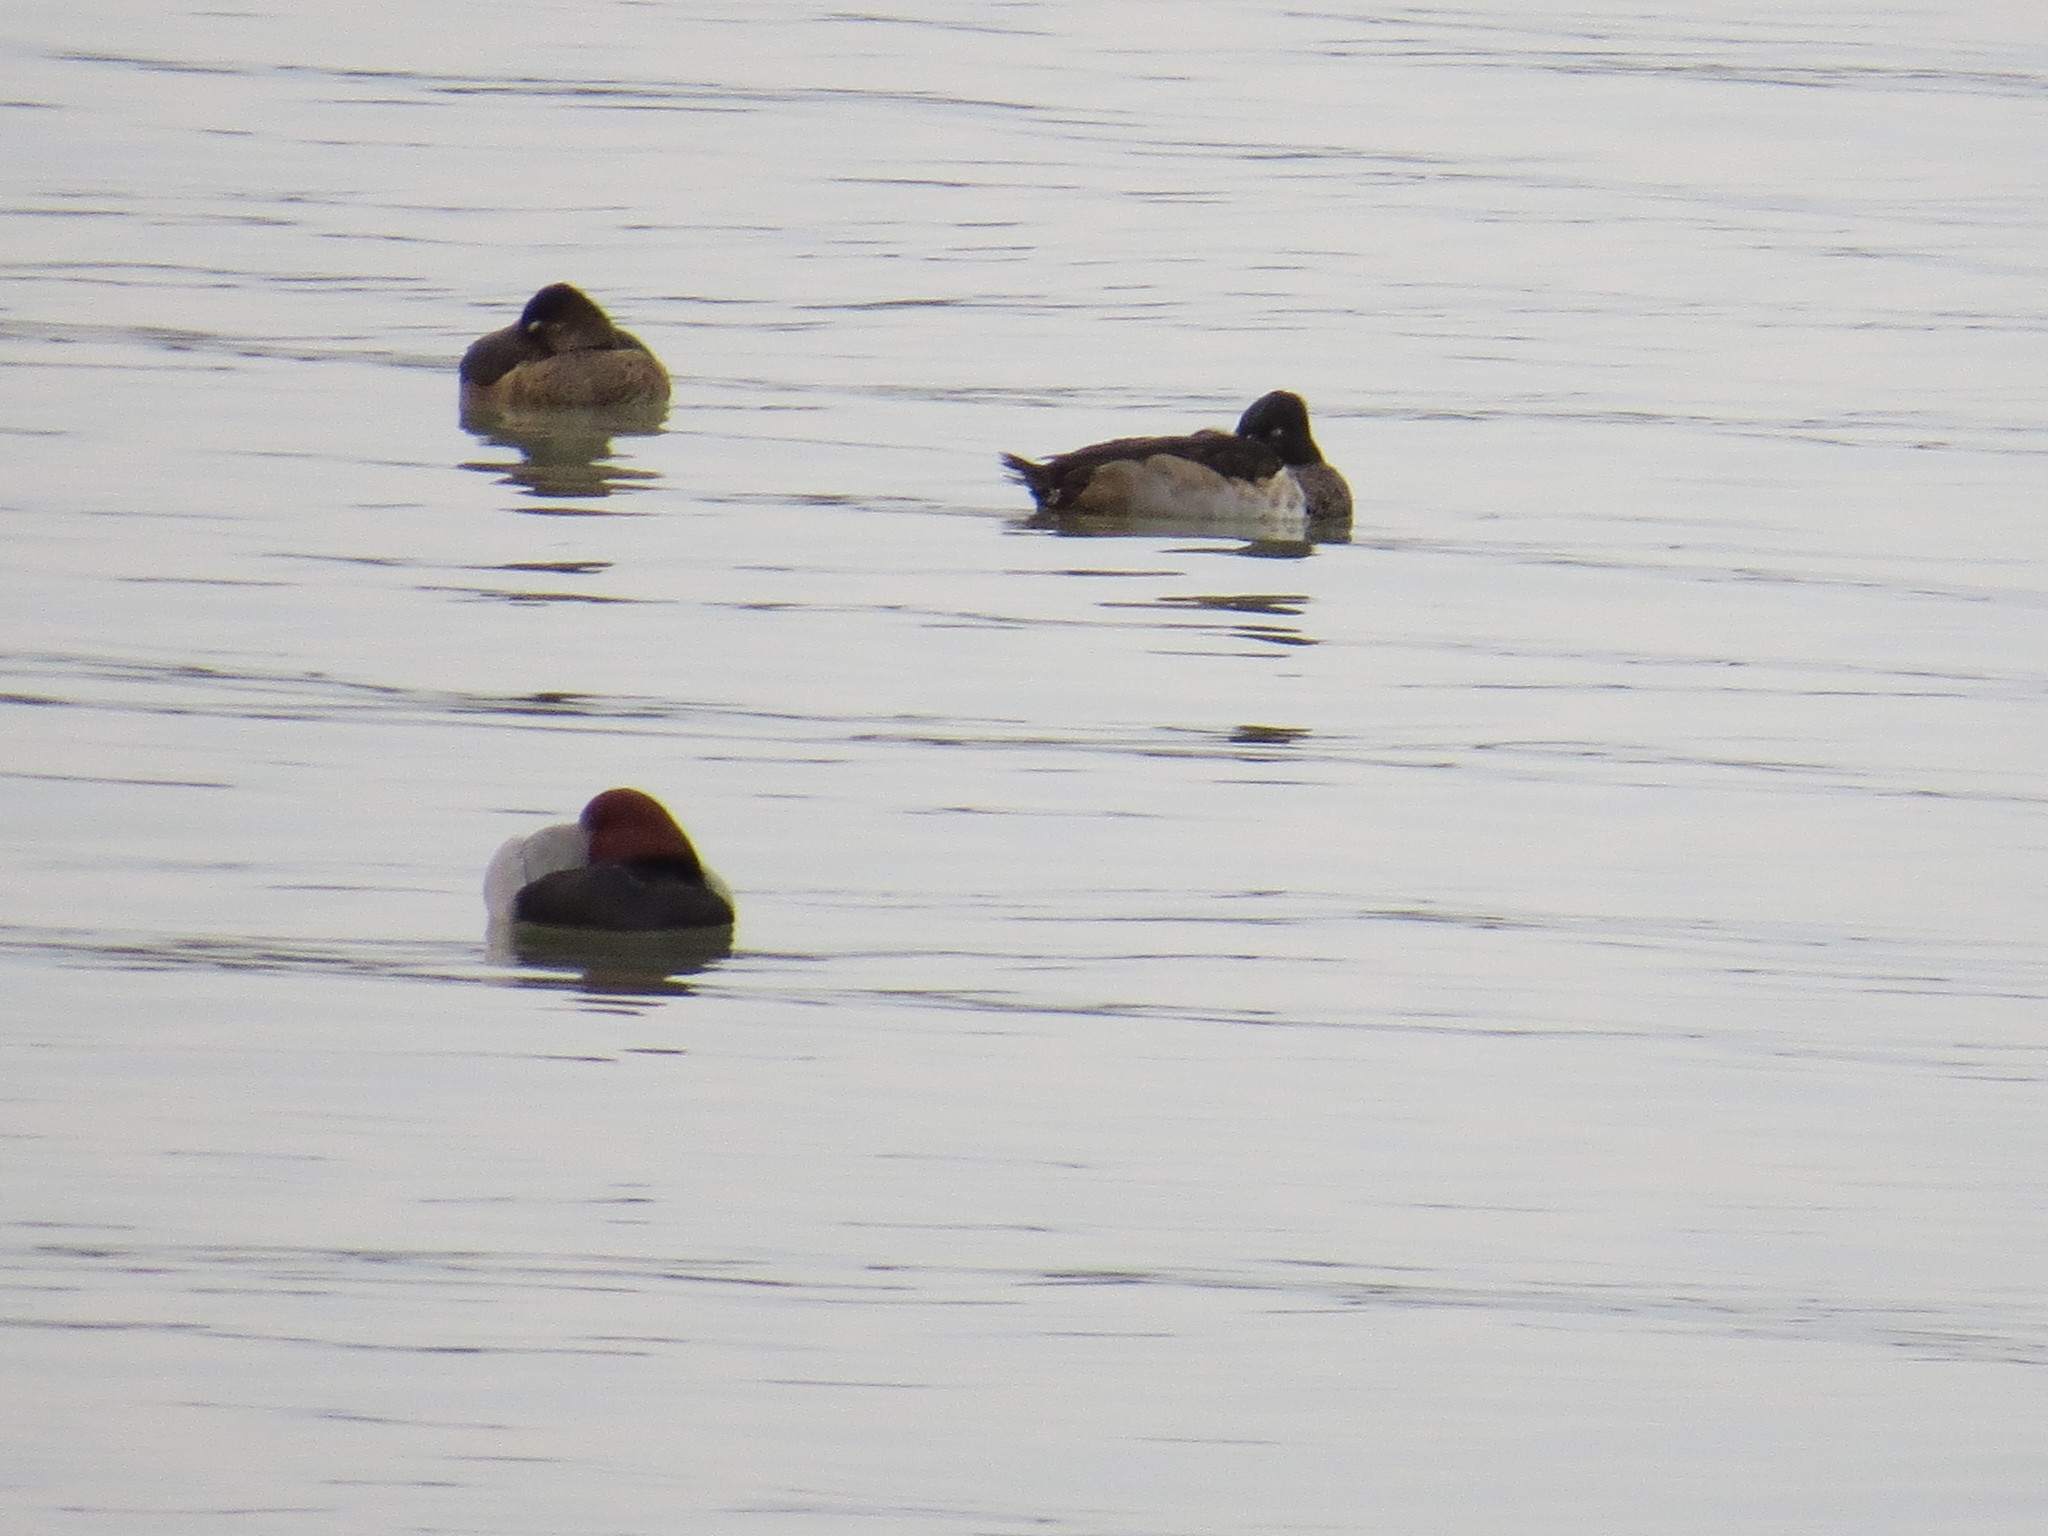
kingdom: Animalia
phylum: Chordata
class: Aves
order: Anseriformes
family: Anatidae
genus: Aythya
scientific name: Aythya collaris
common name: Ring-necked duck
